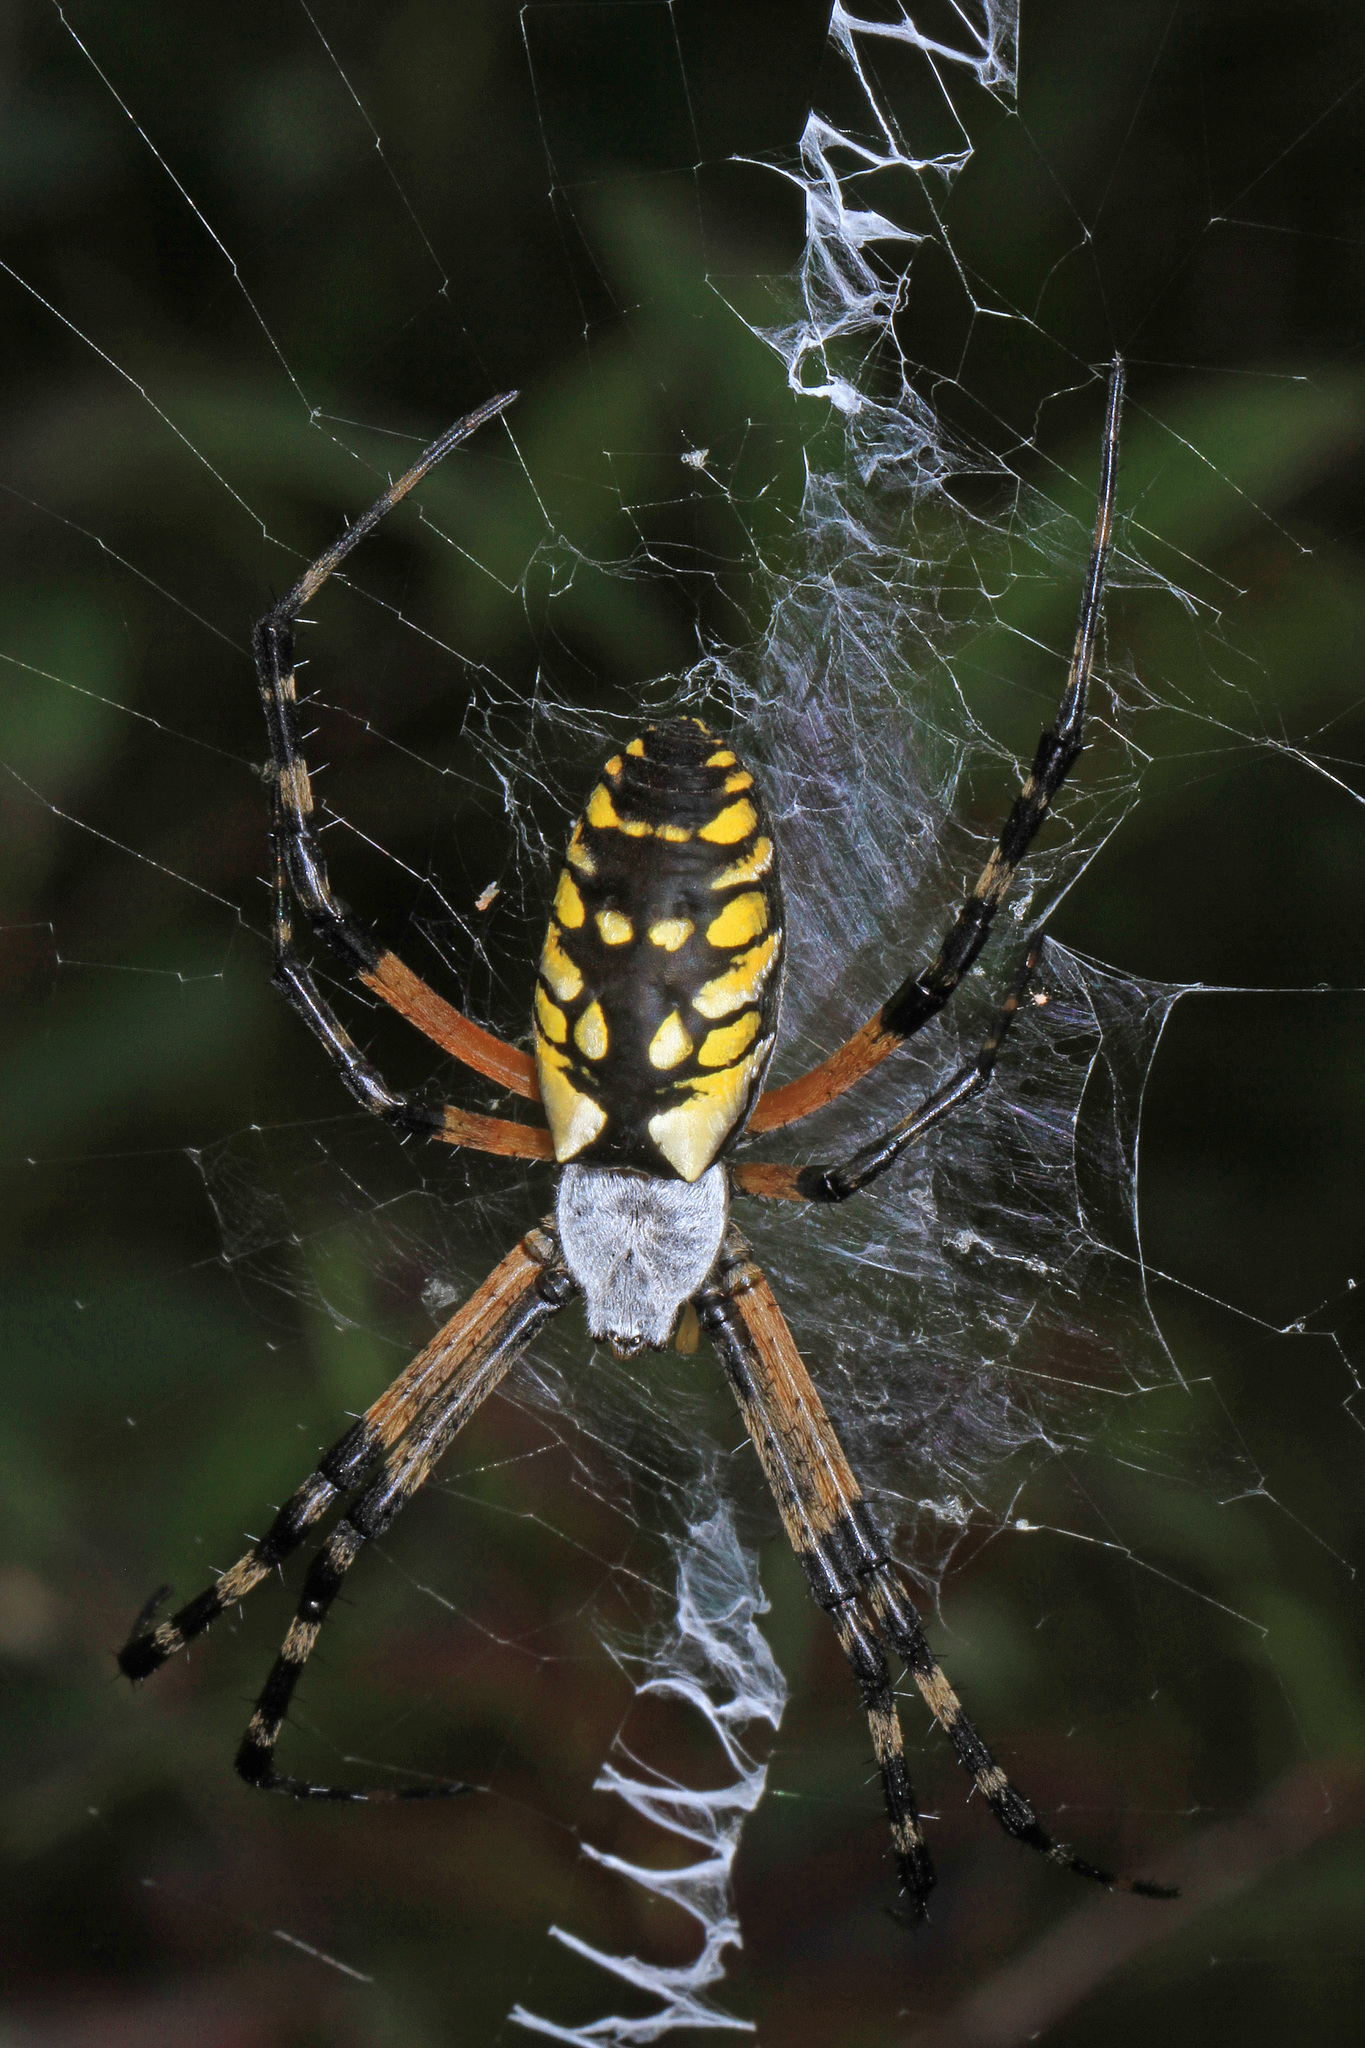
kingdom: Animalia
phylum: Arthropoda
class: Arachnida
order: Araneae
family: Araneidae
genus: Argiope
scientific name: Argiope aurantia
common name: Orb weavers
